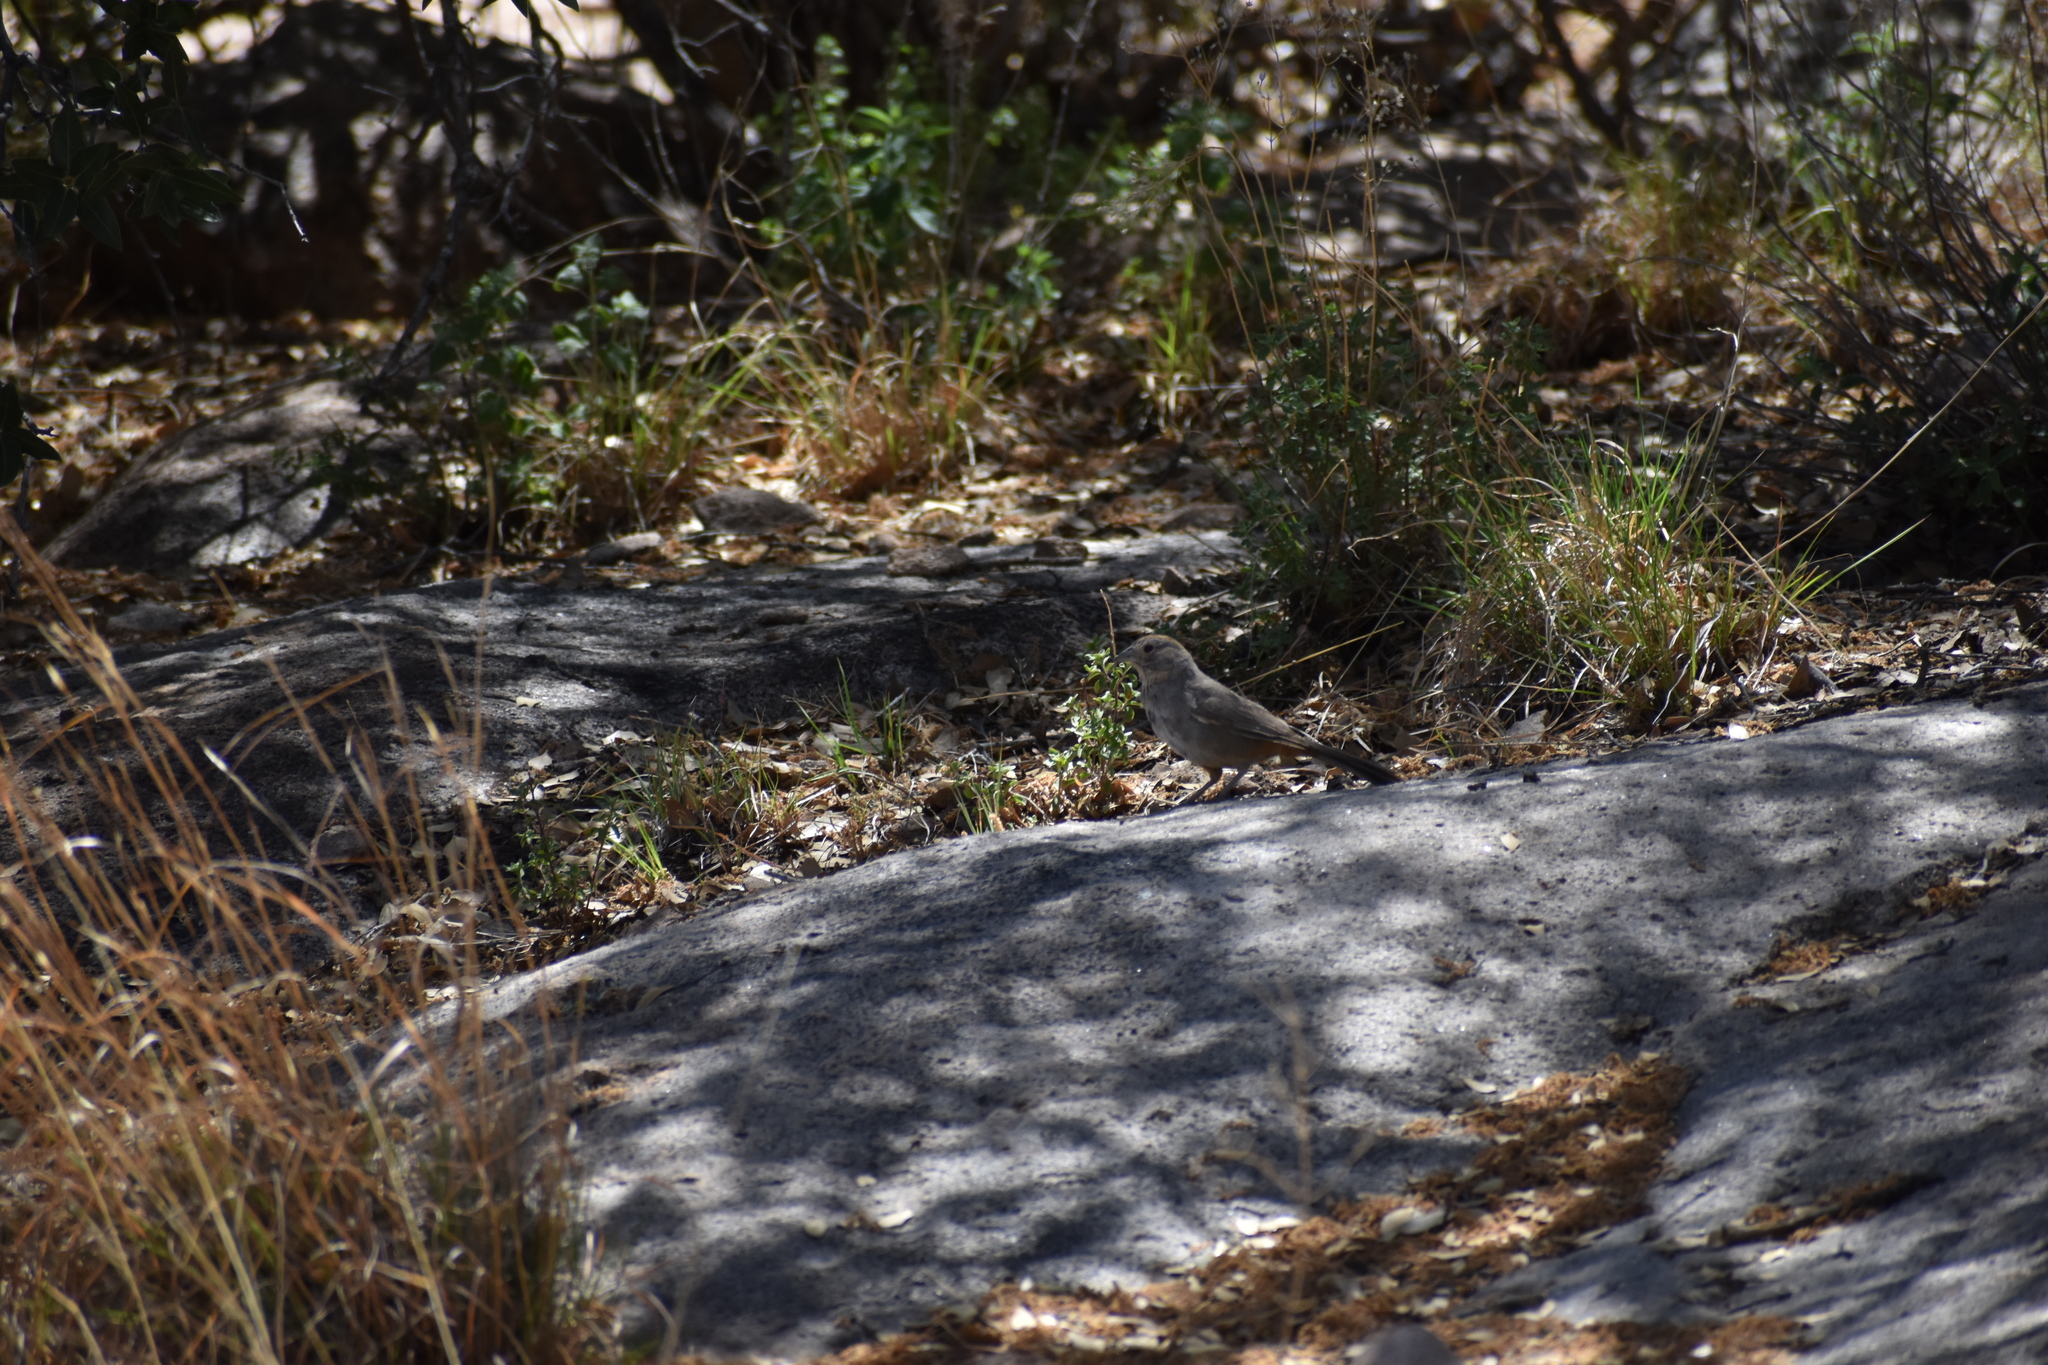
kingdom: Animalia
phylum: Chordata
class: Aves
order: Passeriformes
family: Passerellidae
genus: Melozone
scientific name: Melozone fusca
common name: Canyon towhee
